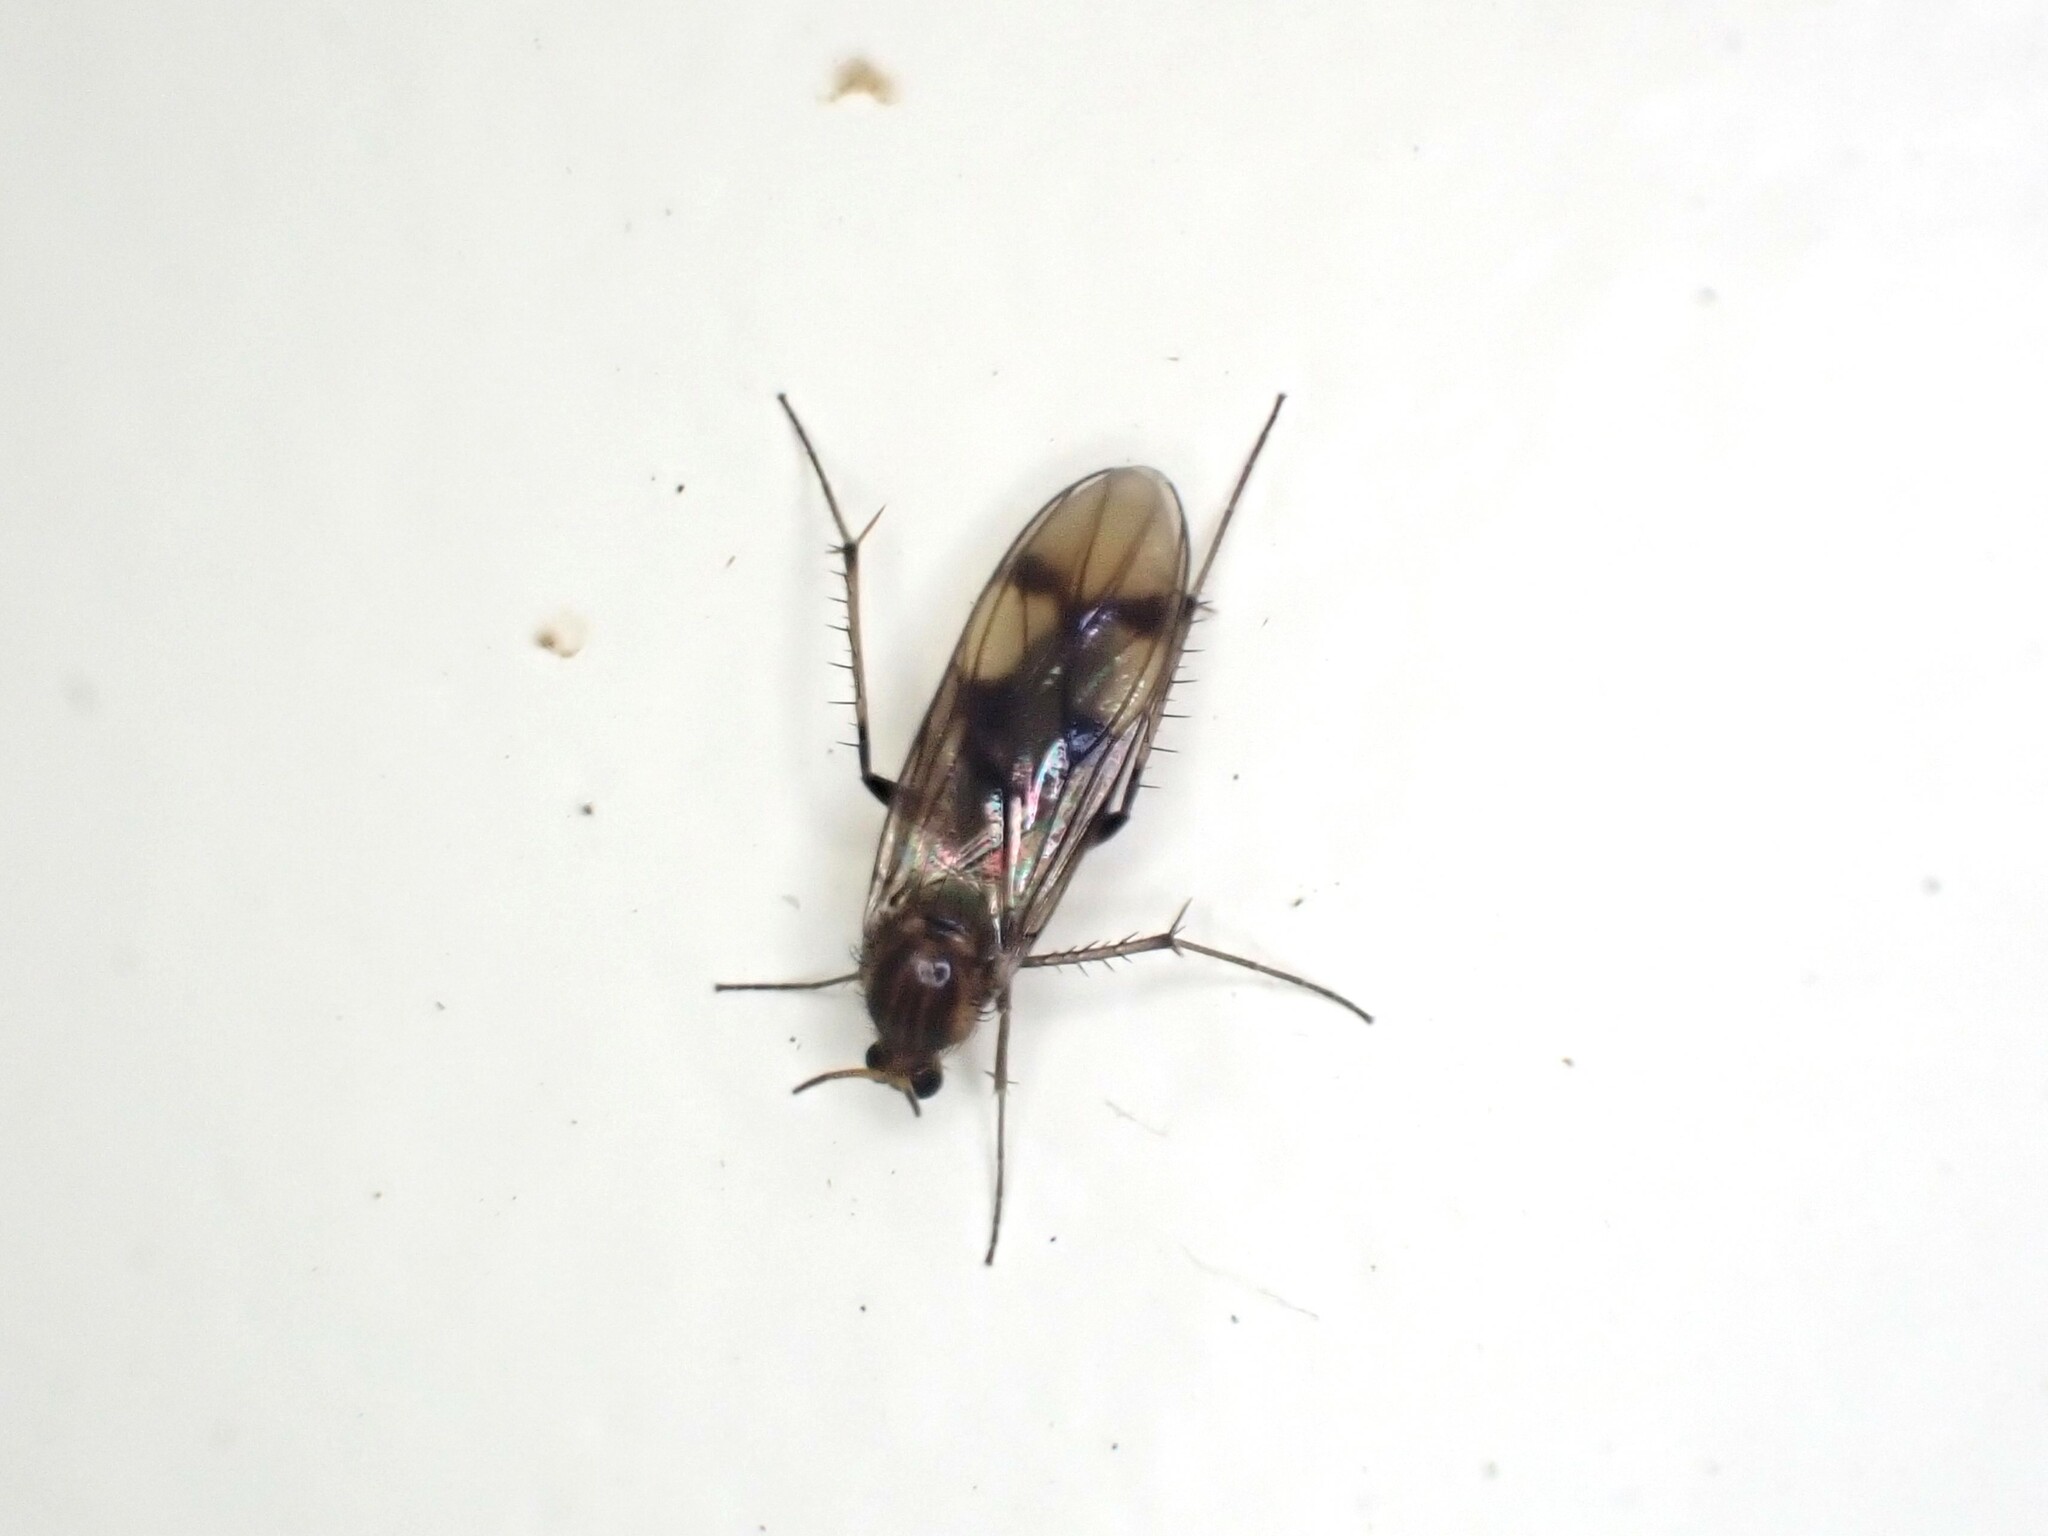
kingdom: Animalia
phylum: Arthropoda
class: Insecta
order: Diptera
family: Mycetophilidae
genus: Anomalomyia
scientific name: Anomalomyia guttata
